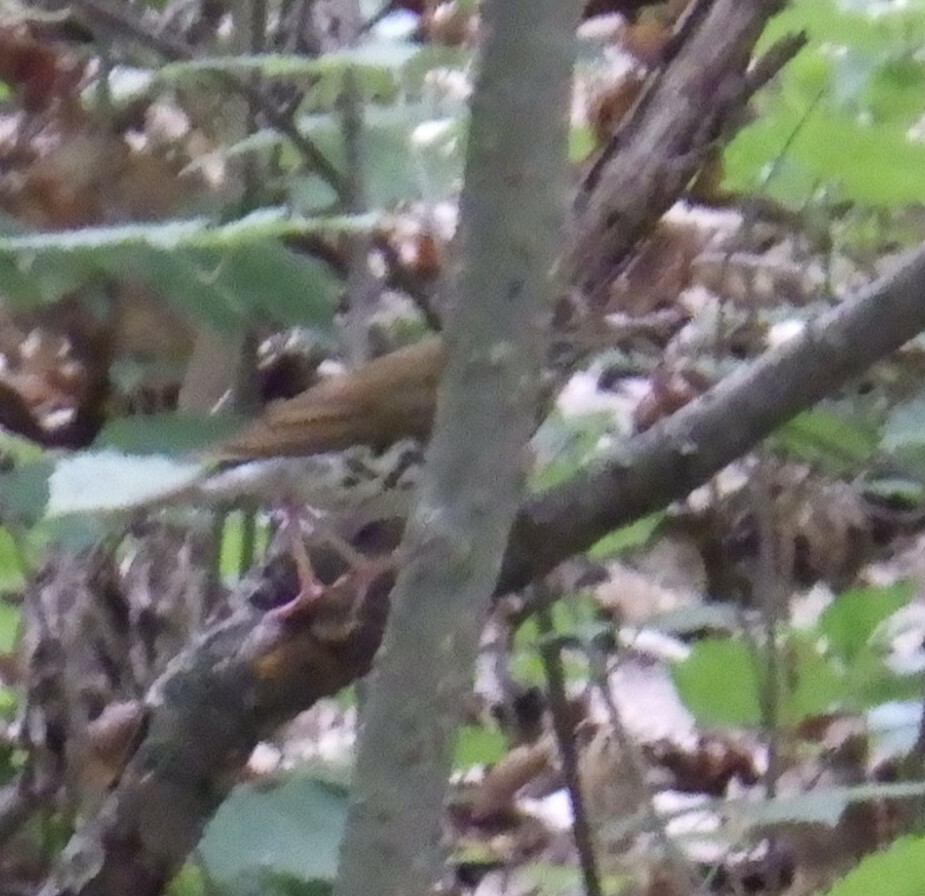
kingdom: Animalia
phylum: Chordata
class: Aves
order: Passeriformes
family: Turdidae
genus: Hylocichla
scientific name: Hylocichla mustelina
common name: Wood thrush
